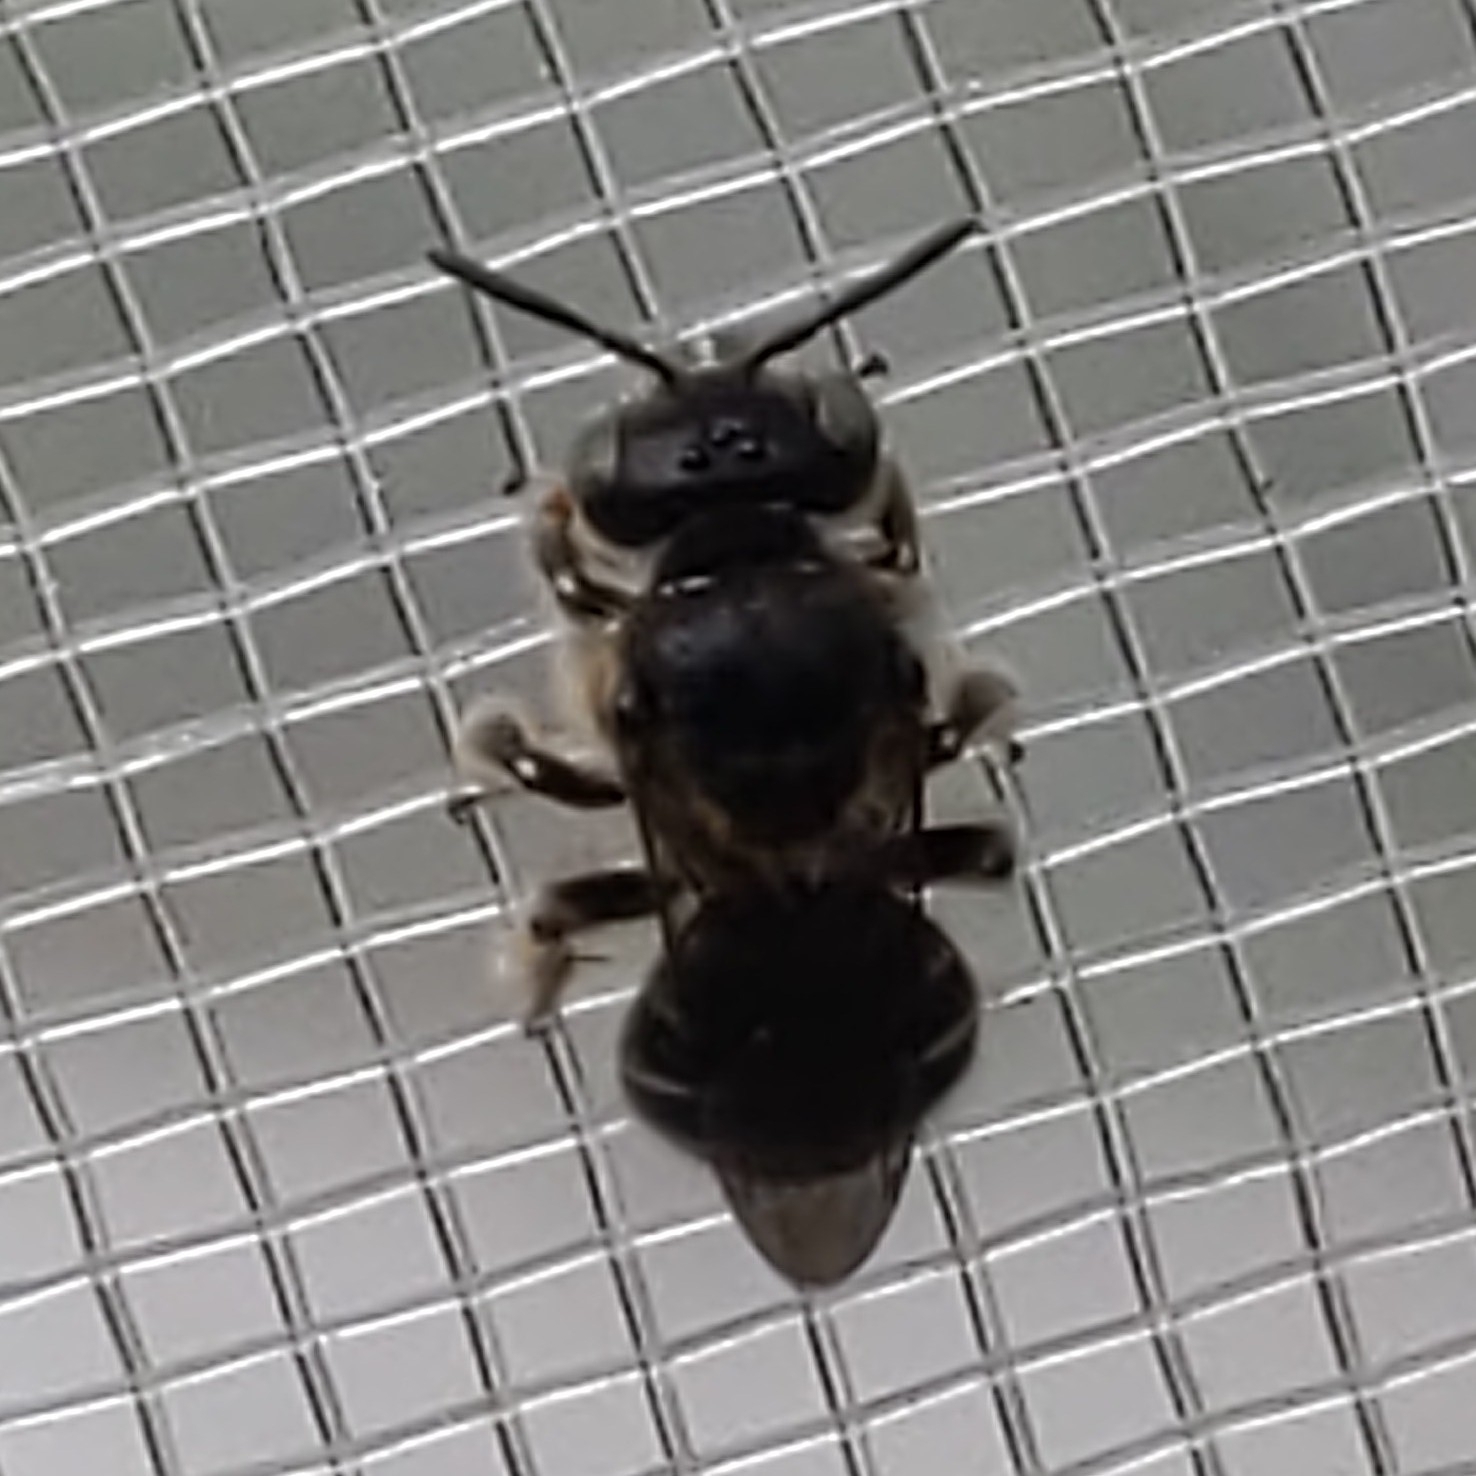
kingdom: Animalia
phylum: Arthropoda
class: Insecta
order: Hymenoptera
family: Andrenidae
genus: Calliopsis
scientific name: Calliopsis andreniformis
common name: Eastern calliopsis bee
